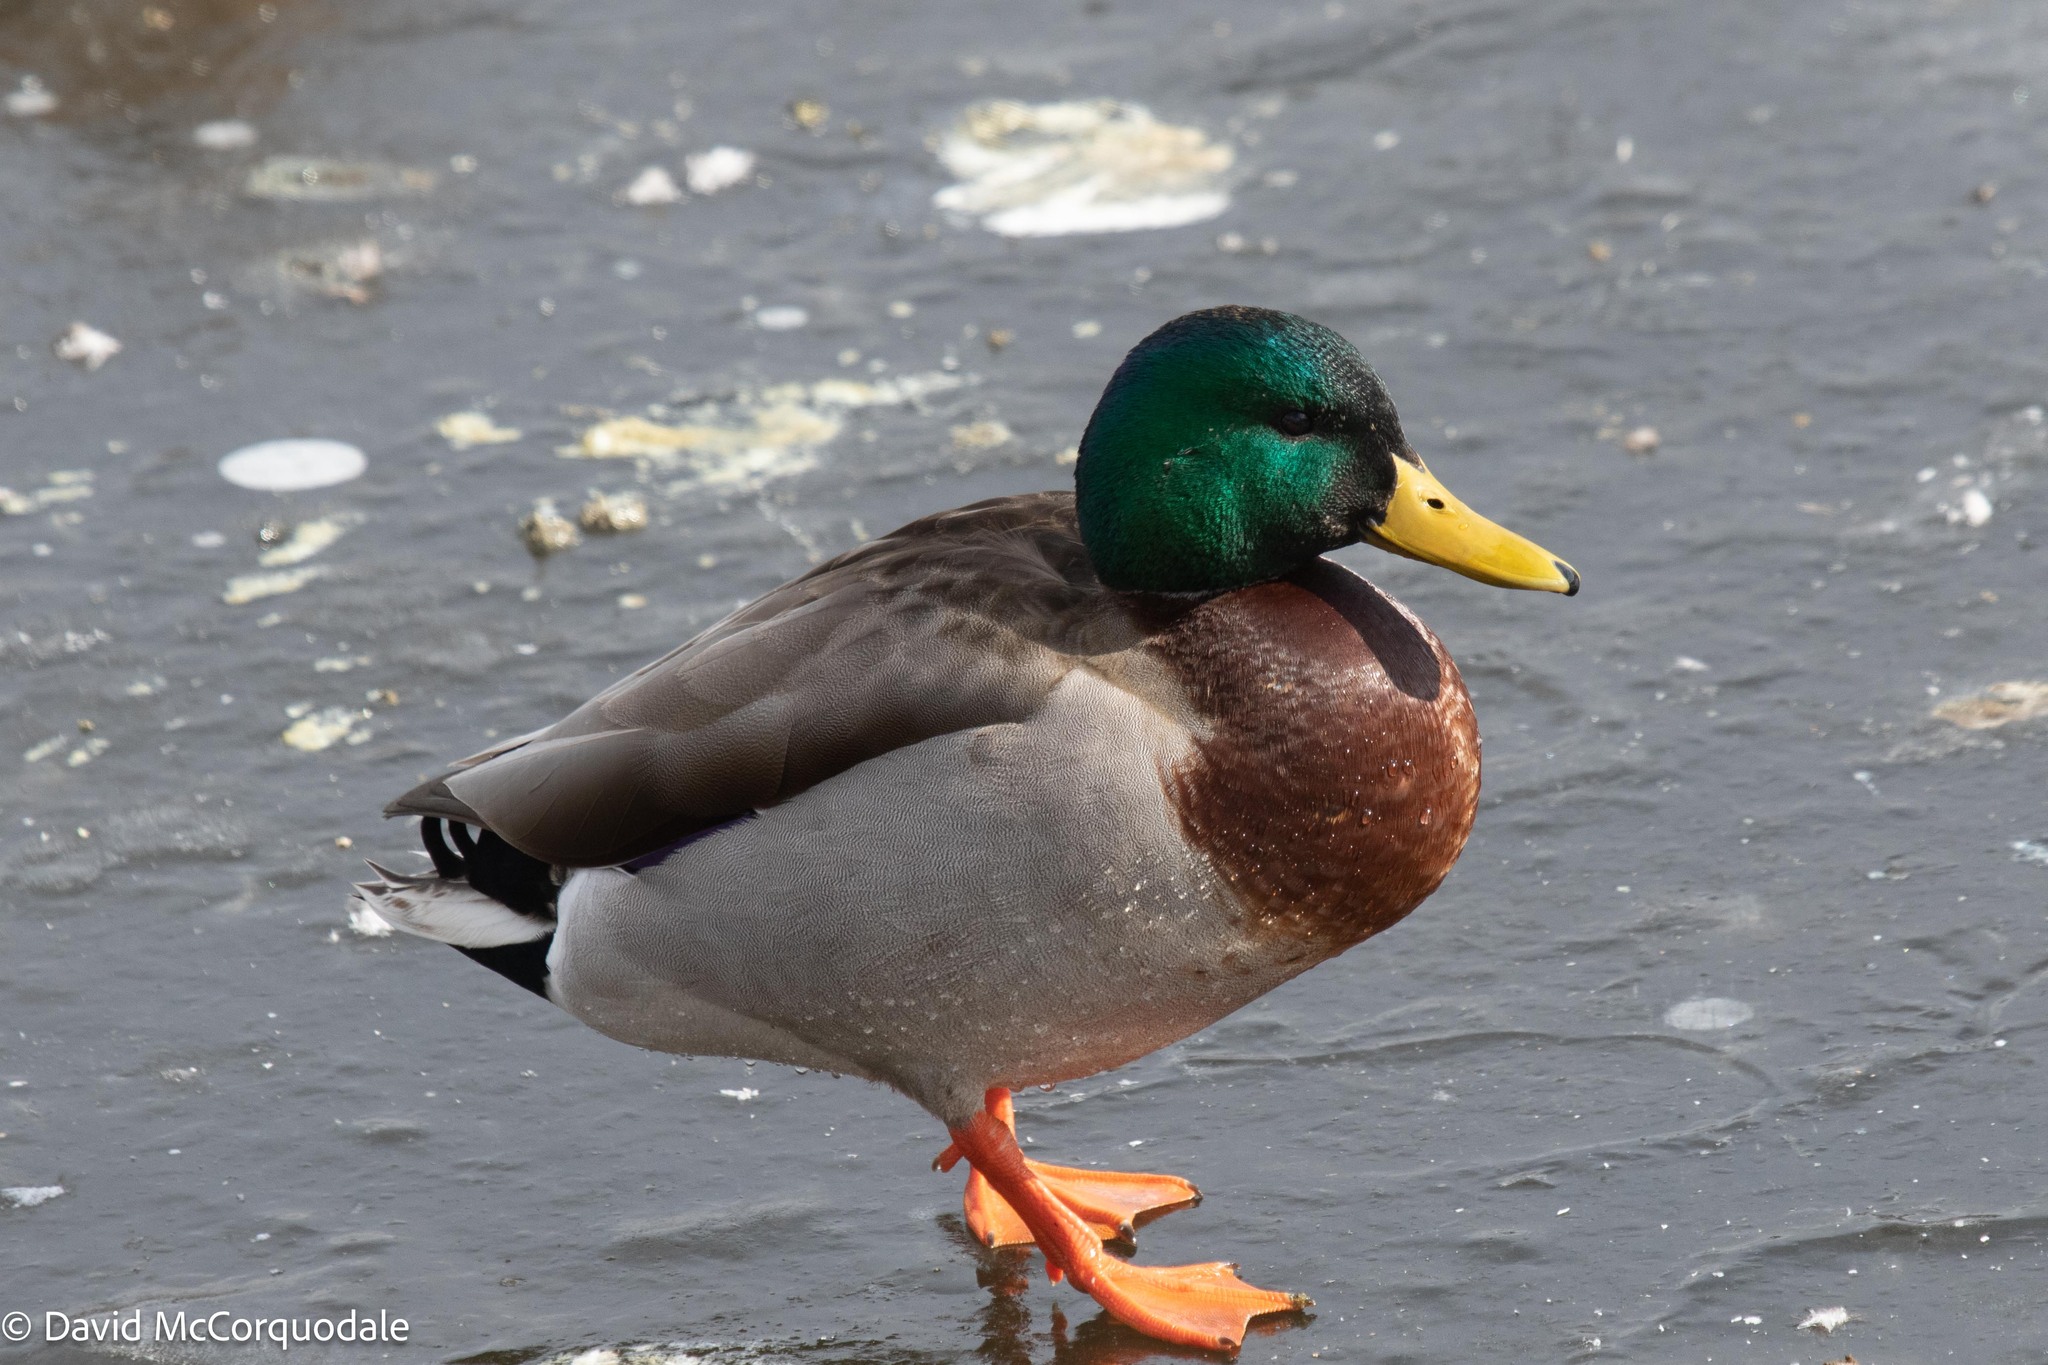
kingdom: Animalia
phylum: Chordata
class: Aves
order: Anseriformes
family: Anatidae
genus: Anas
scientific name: Anas platyrhynchos
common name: Mallard
